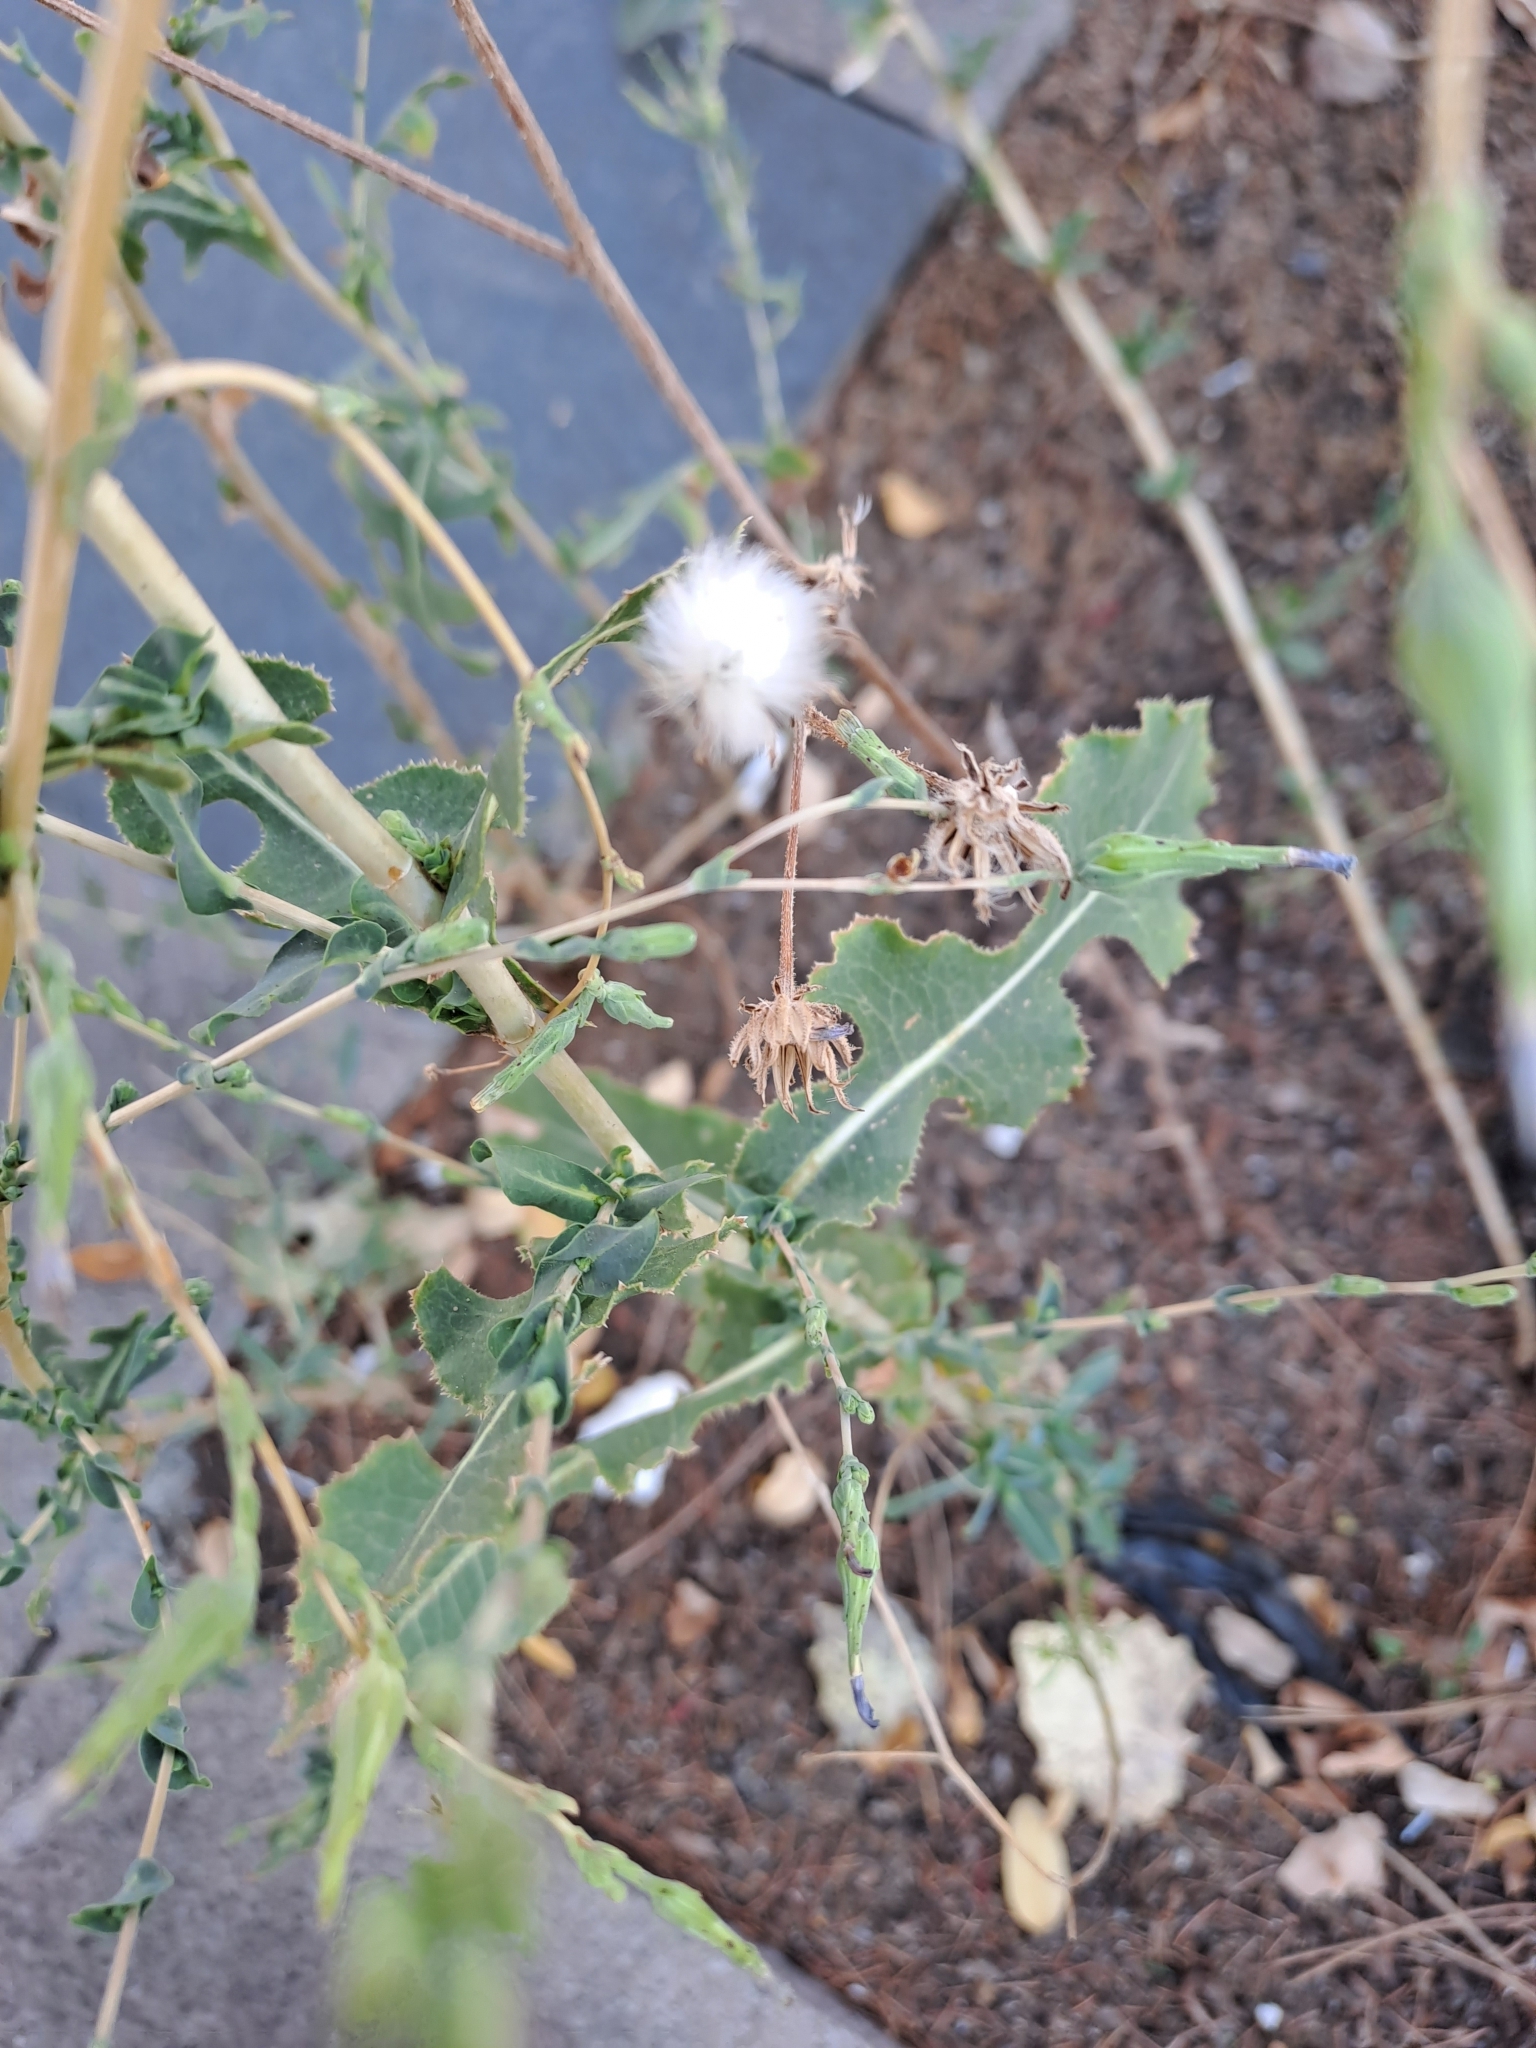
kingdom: Plantae
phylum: Tracheophyta
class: Magnoliopsida
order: Asterales
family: Asteraceae
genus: Lactuca
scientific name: Lactuca serriola
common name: Prickly lettuce
